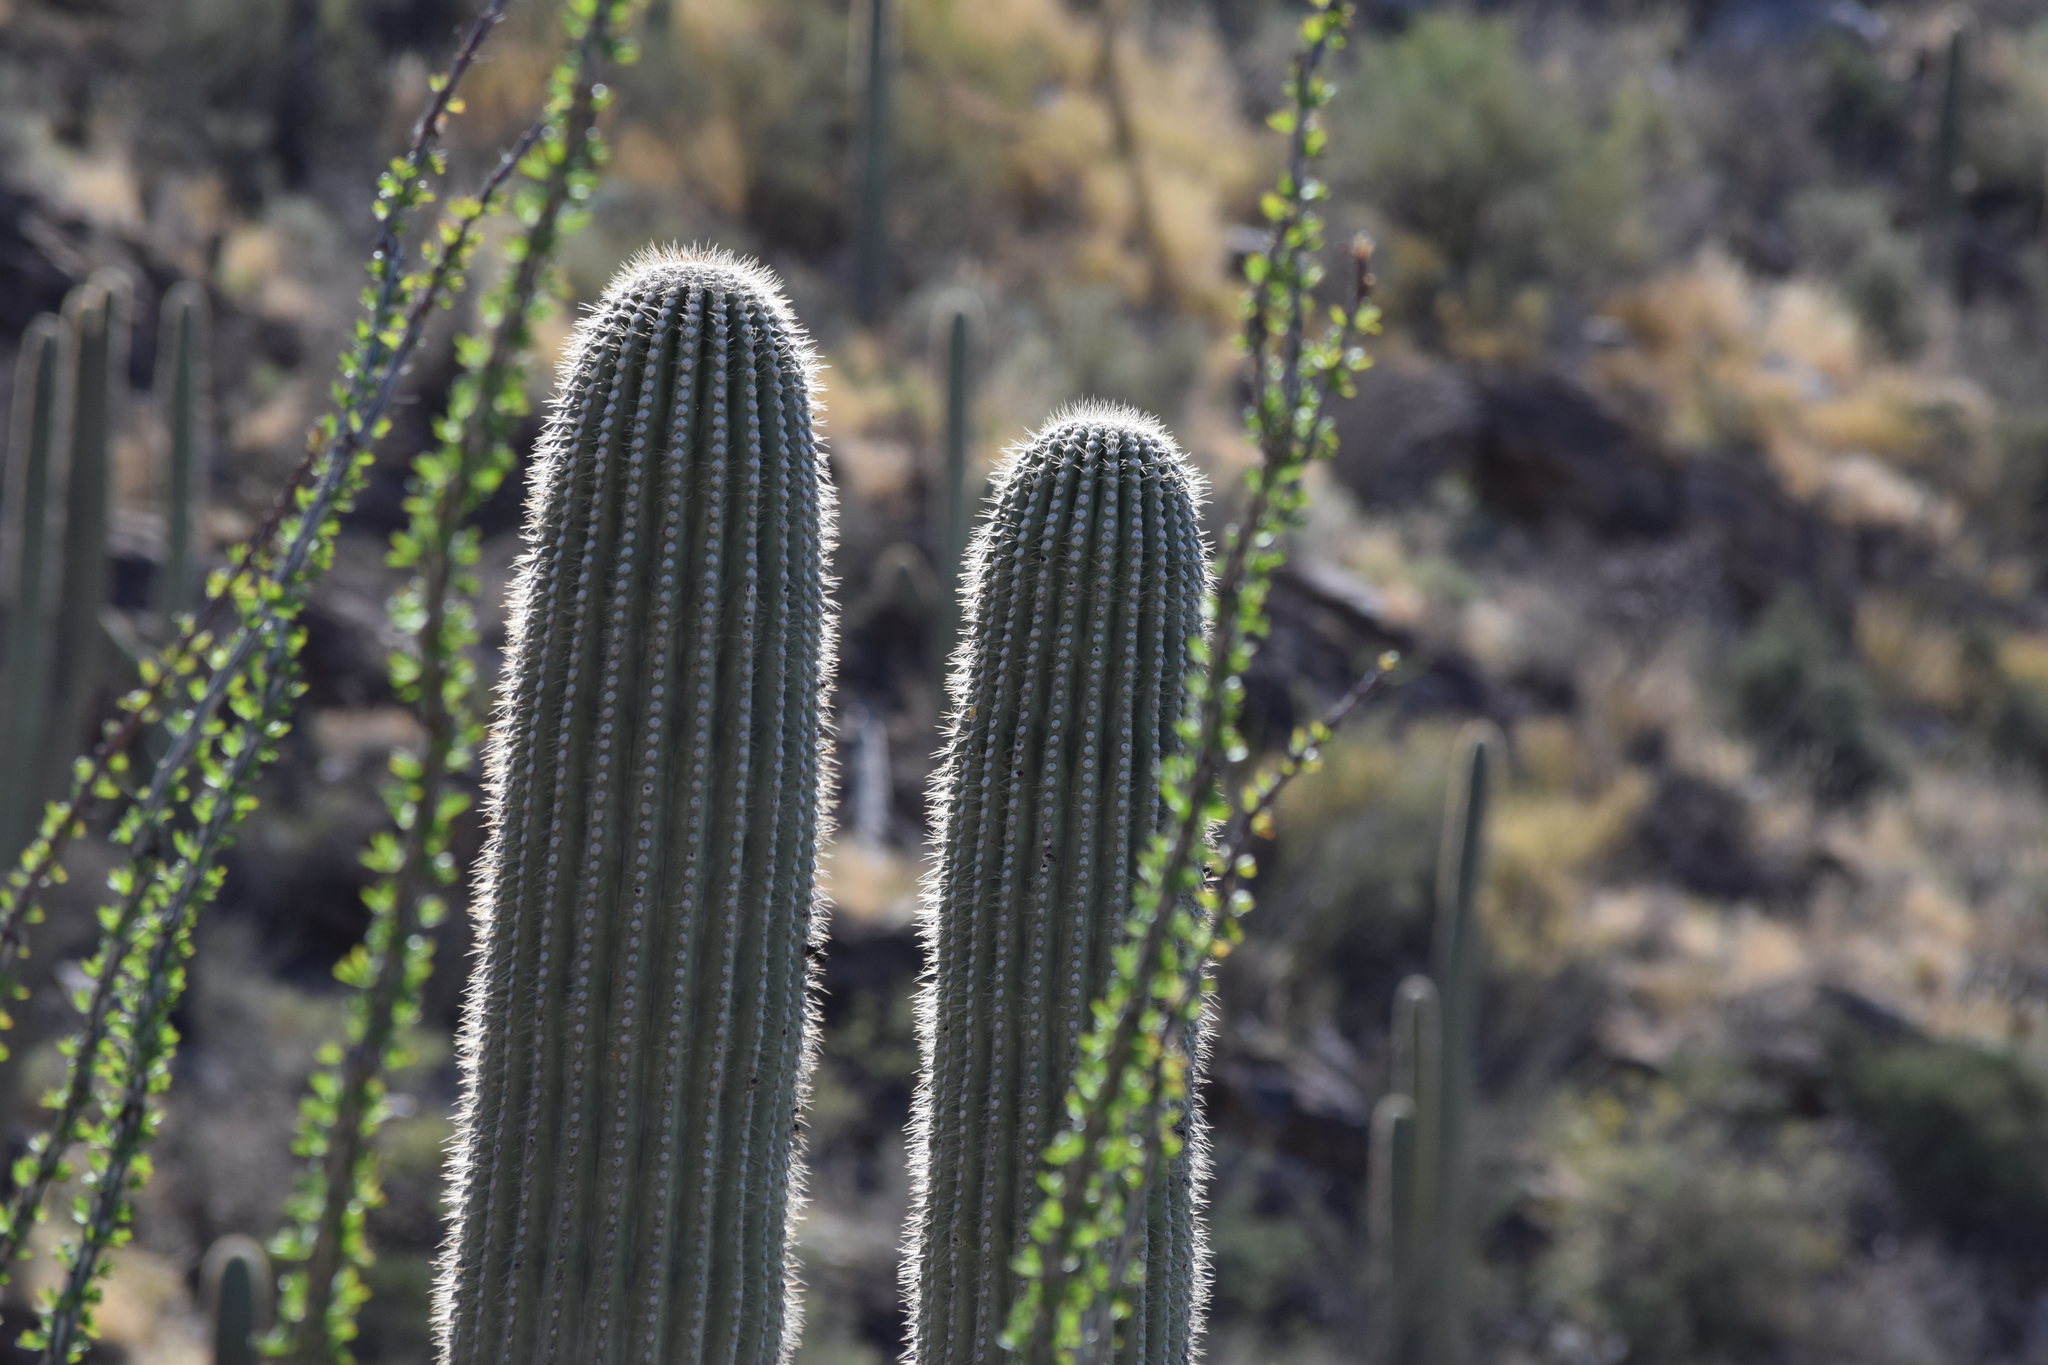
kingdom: Plantae
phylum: Tracheophyta
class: Magnoliopsida
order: Caryophyllales
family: Cactaceae
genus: Carnegiea
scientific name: Carnegiea gigantea
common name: Saguaro
